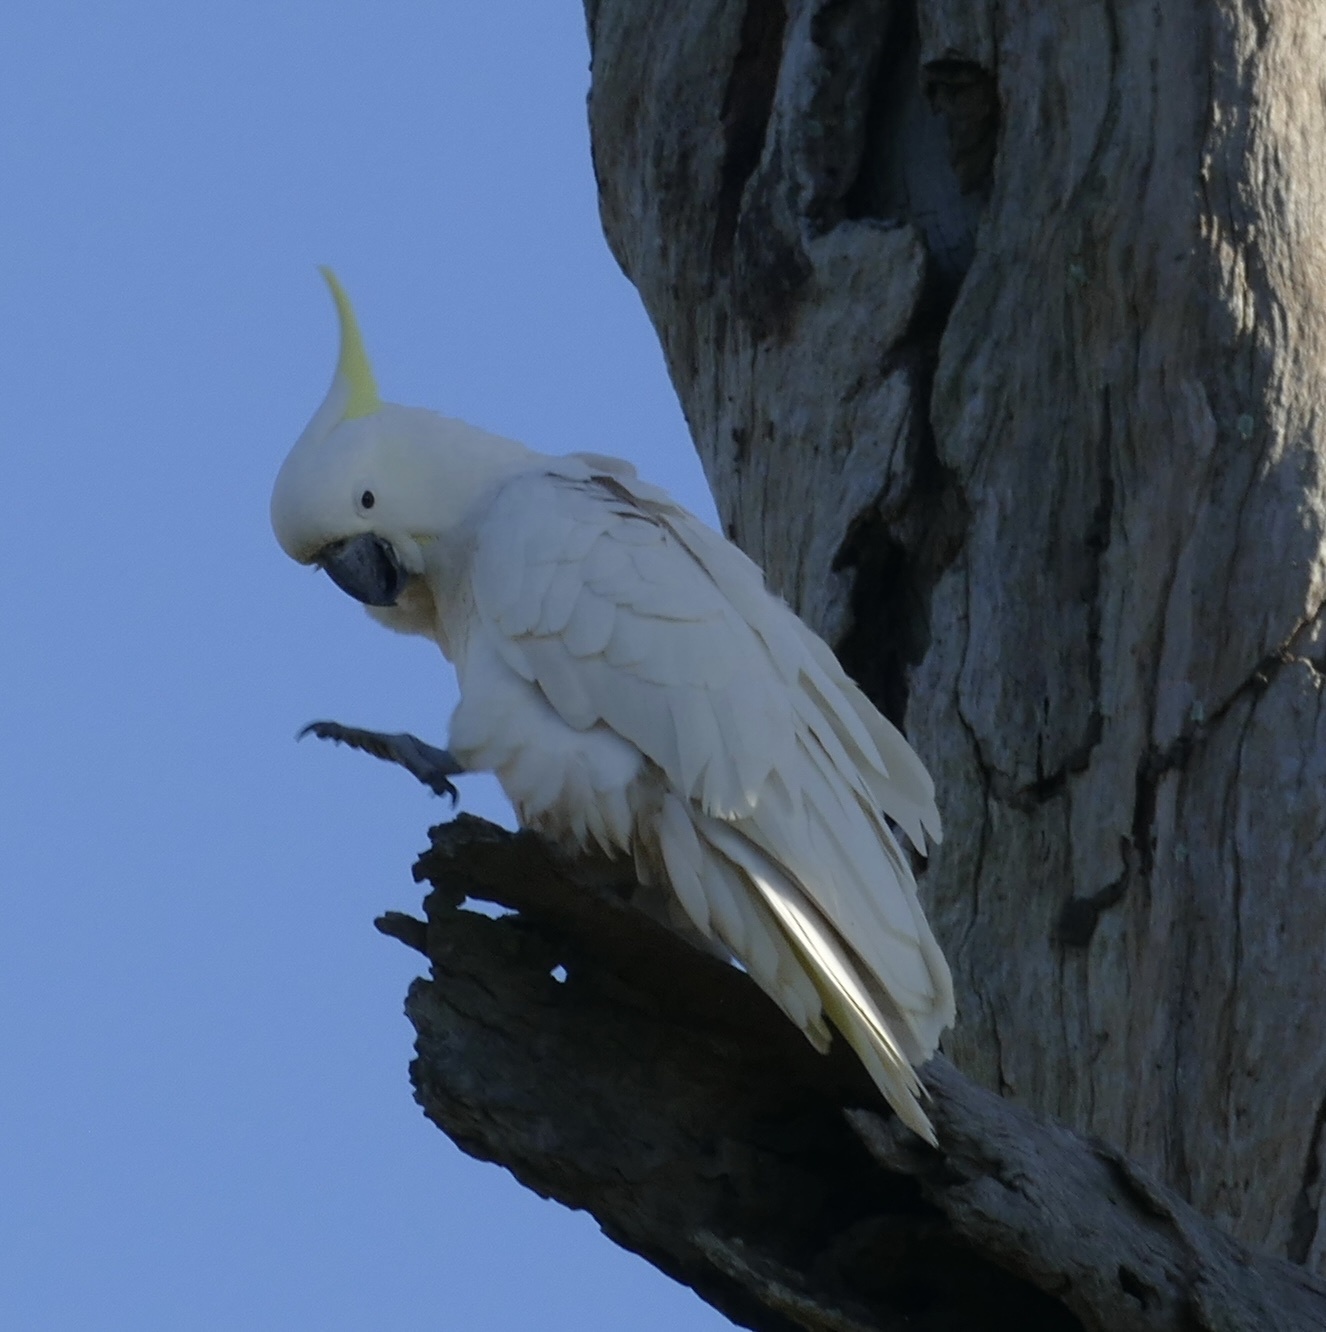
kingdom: Animalia
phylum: Chordata
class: Aves
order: Psittaciformes
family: Psittacidae
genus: Cacatua
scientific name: Cacatua galerita
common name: Sulphur-crested cockatoo
